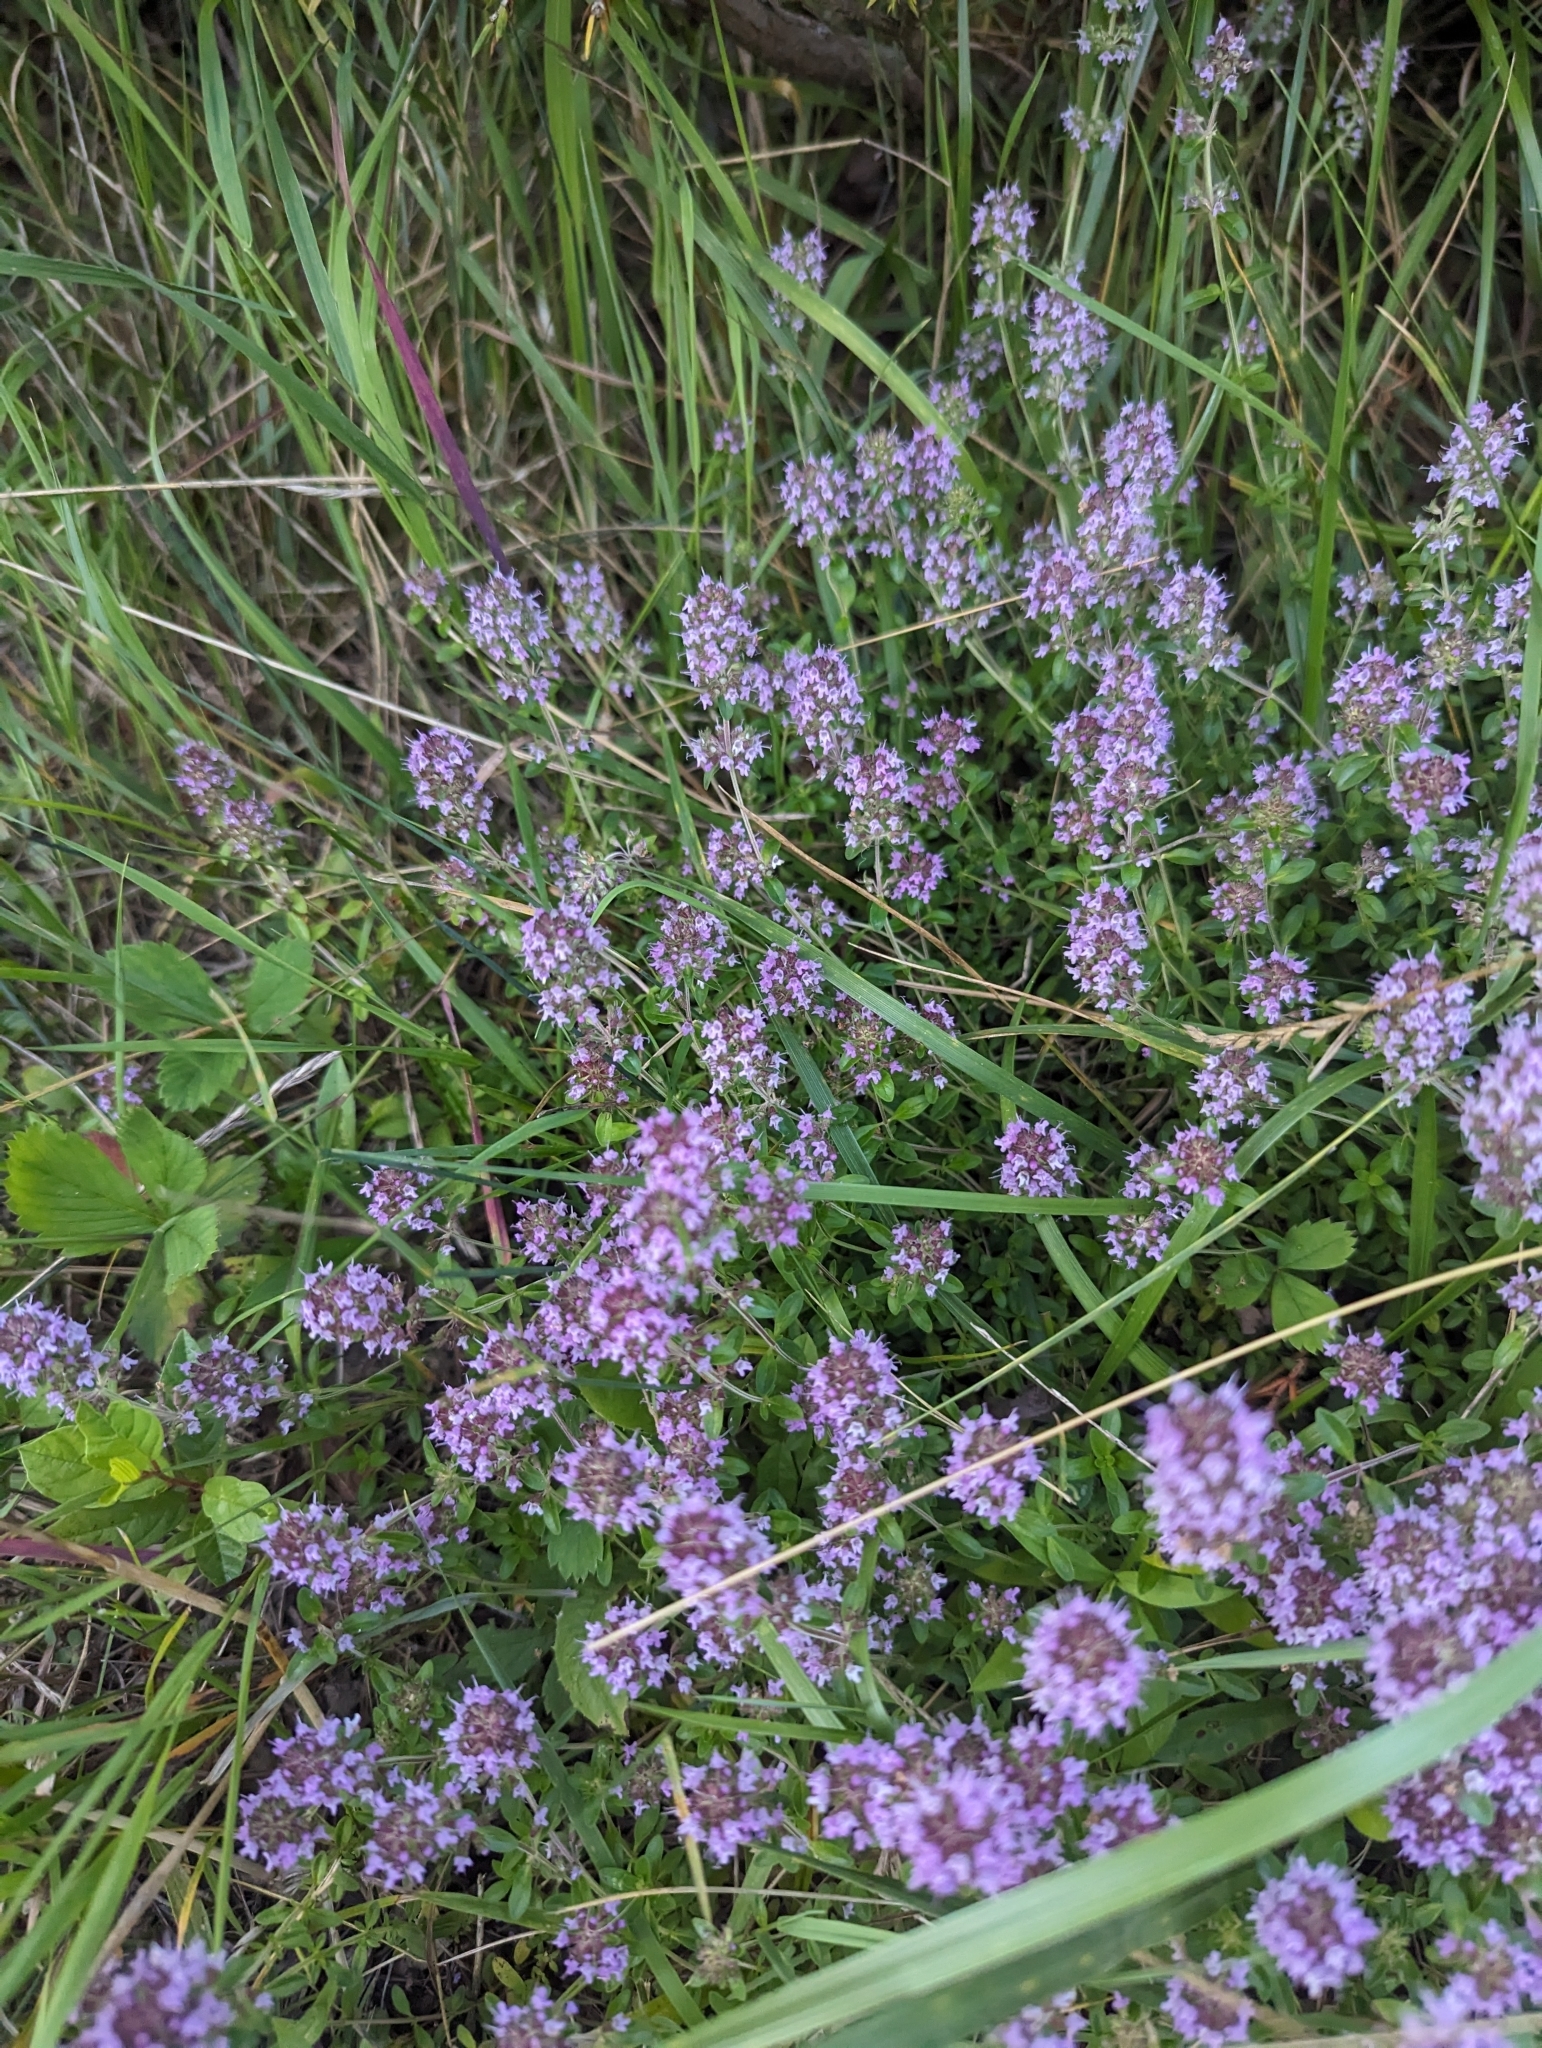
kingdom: Plantae
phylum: Tracheophyta
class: Magnoliopsida
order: Lamiales
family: Lamiaceae
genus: Thymus
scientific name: Thymus pulegioides
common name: Large thyme
